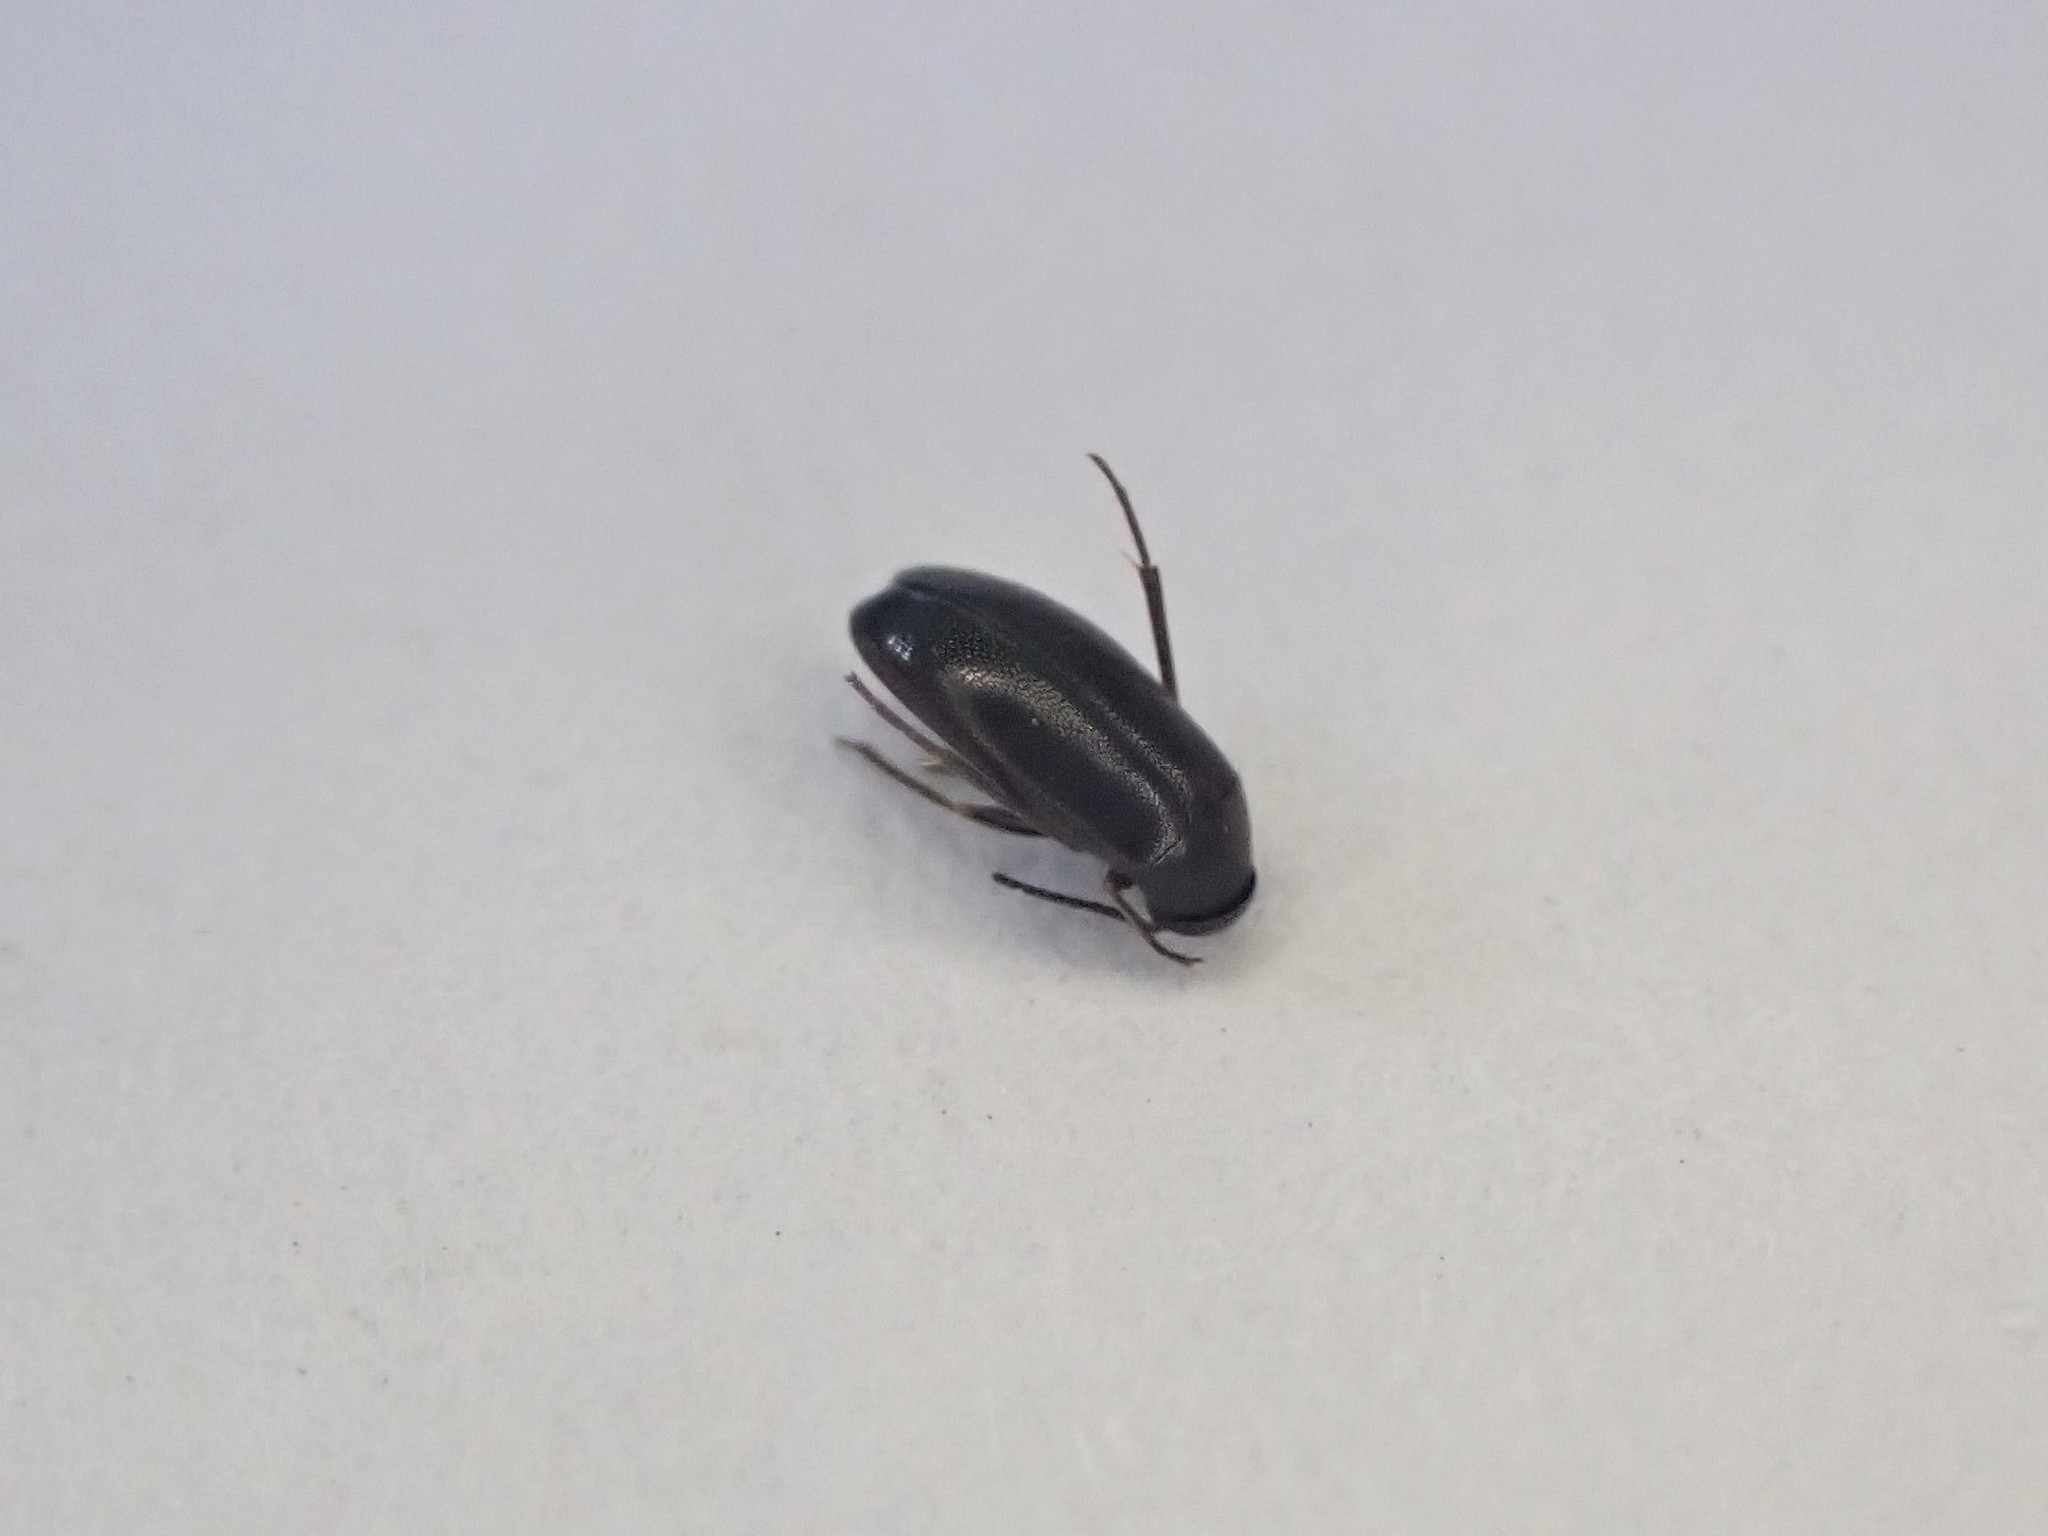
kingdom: Animalia
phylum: Arthropoda
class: Insecta
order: Coleoptera
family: Scraptiidae
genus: Nothotelus
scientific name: Nothotelus
